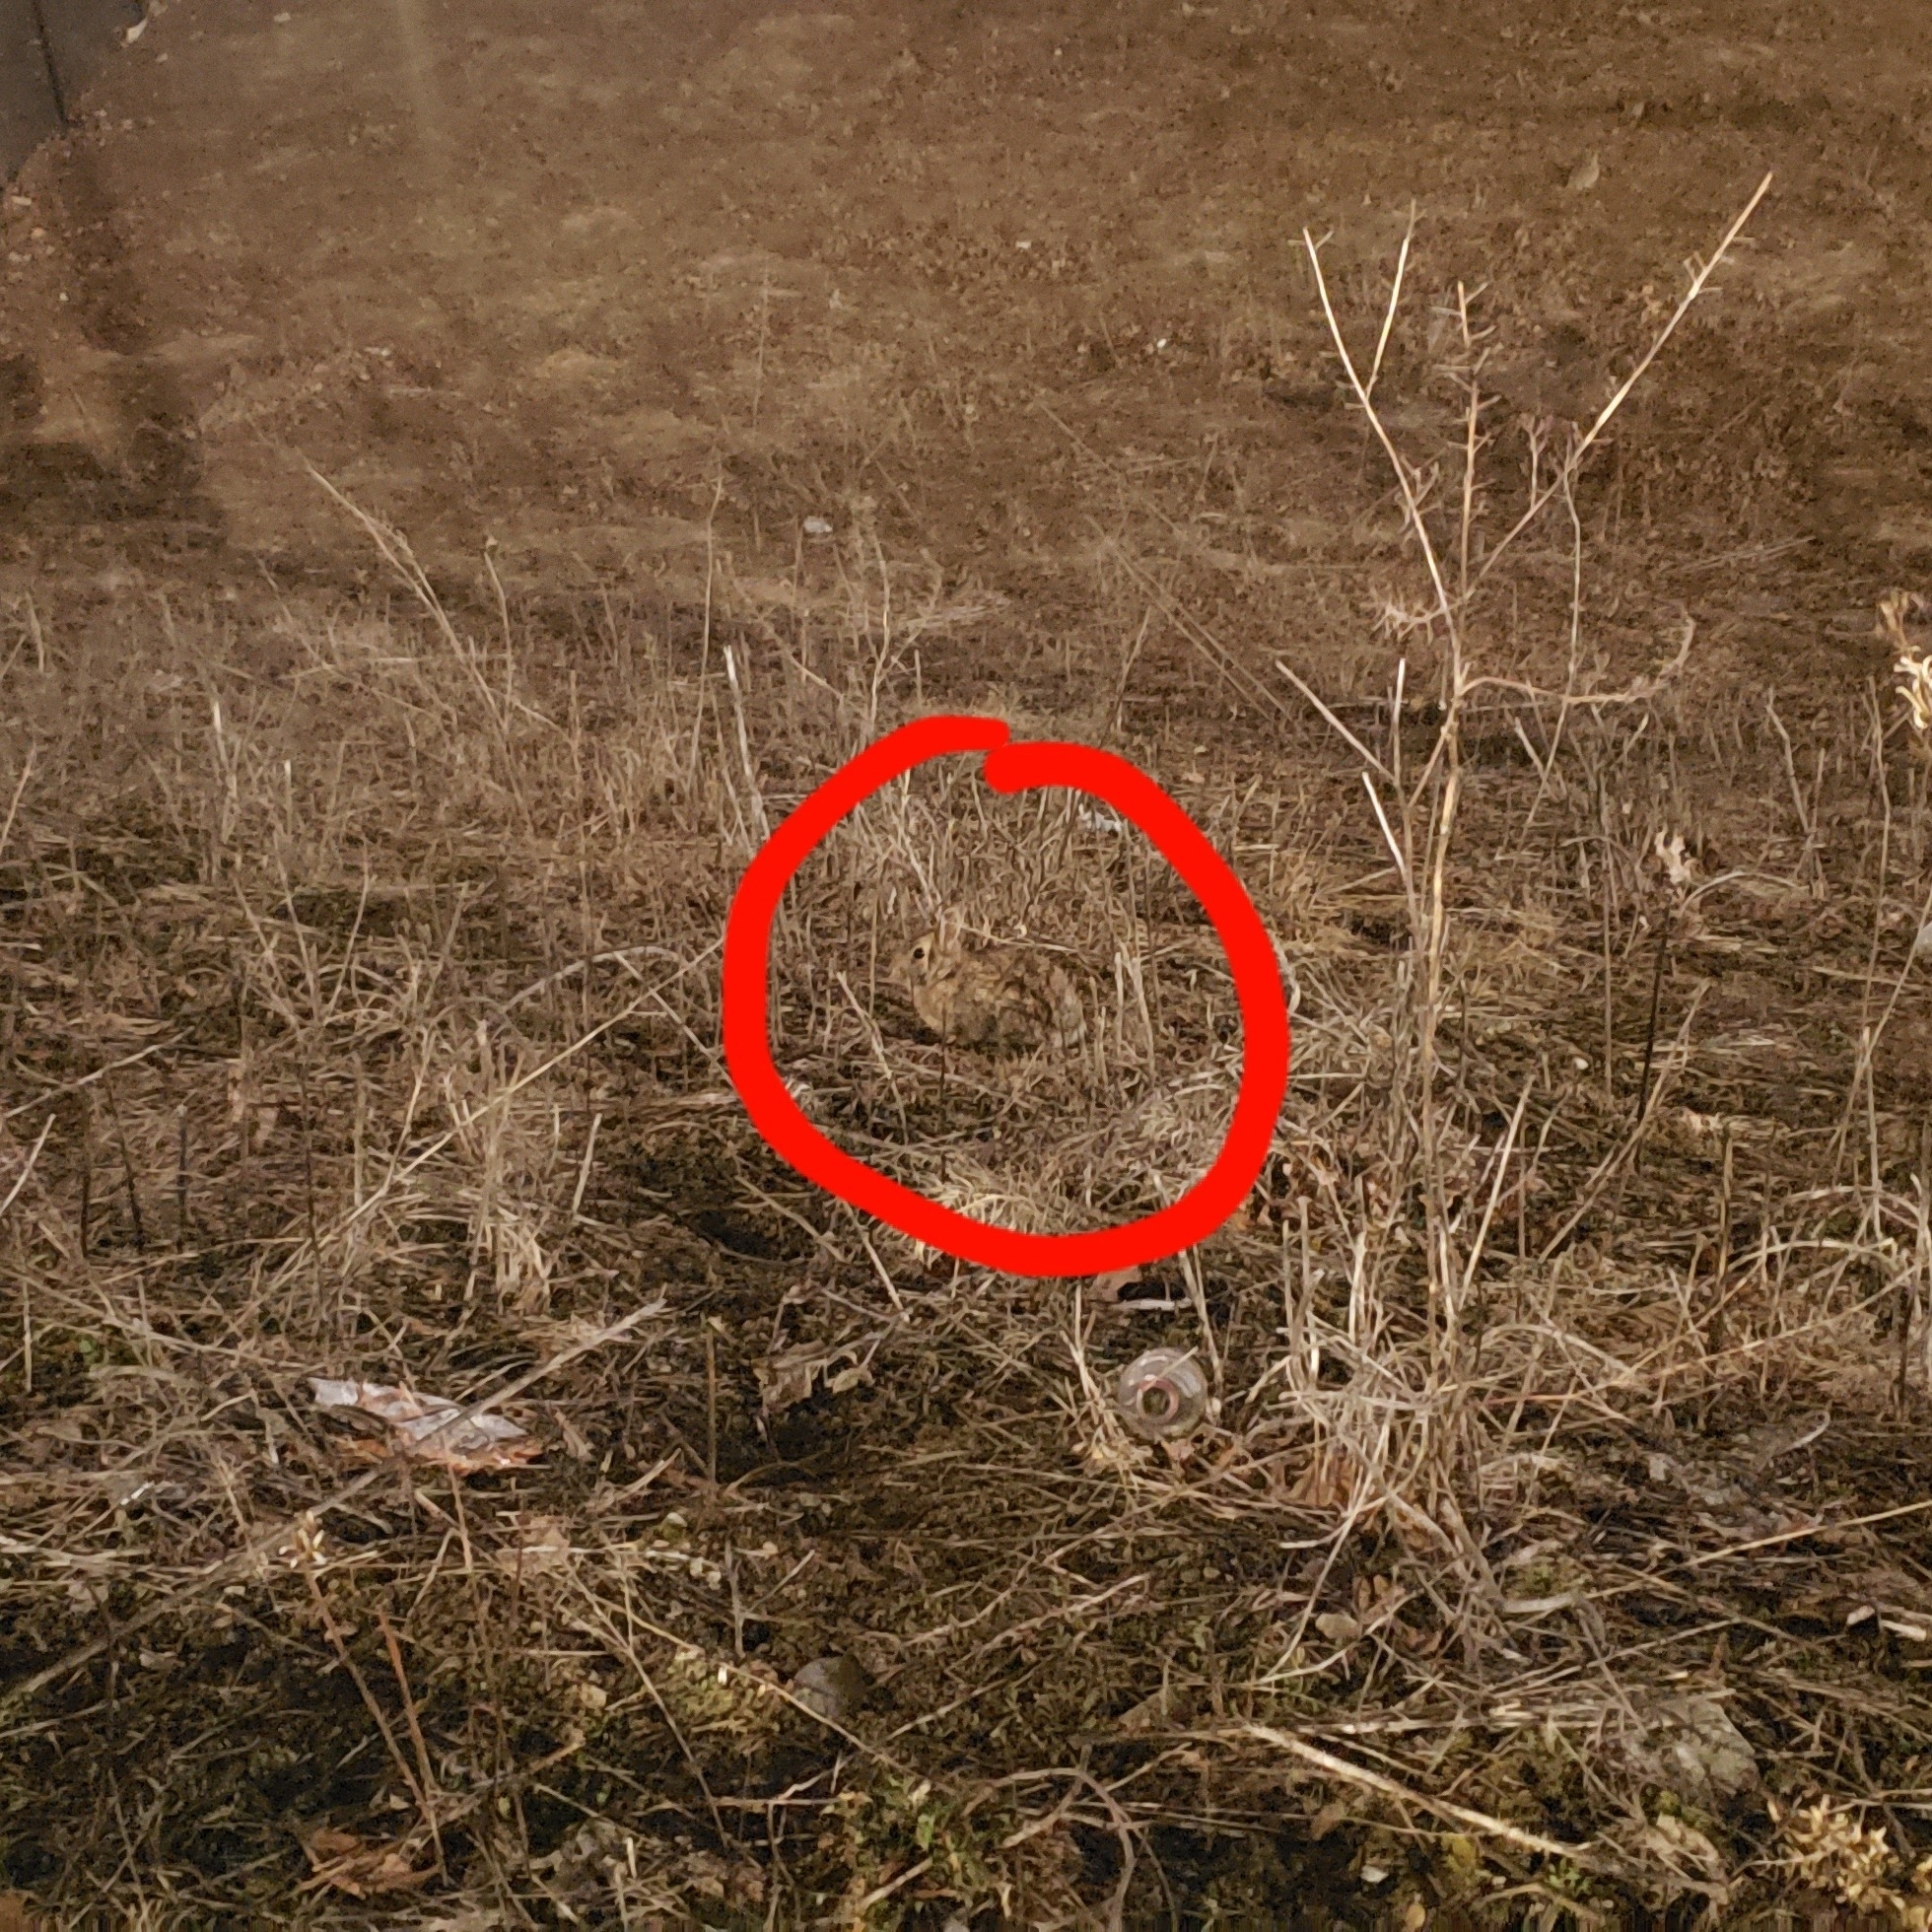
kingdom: Animalia
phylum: Chordata
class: Mammalia
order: Lagomorpha
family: Leporidae
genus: Sylvilagus
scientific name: Sylvilagus floridanus
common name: Eastern cottontail
